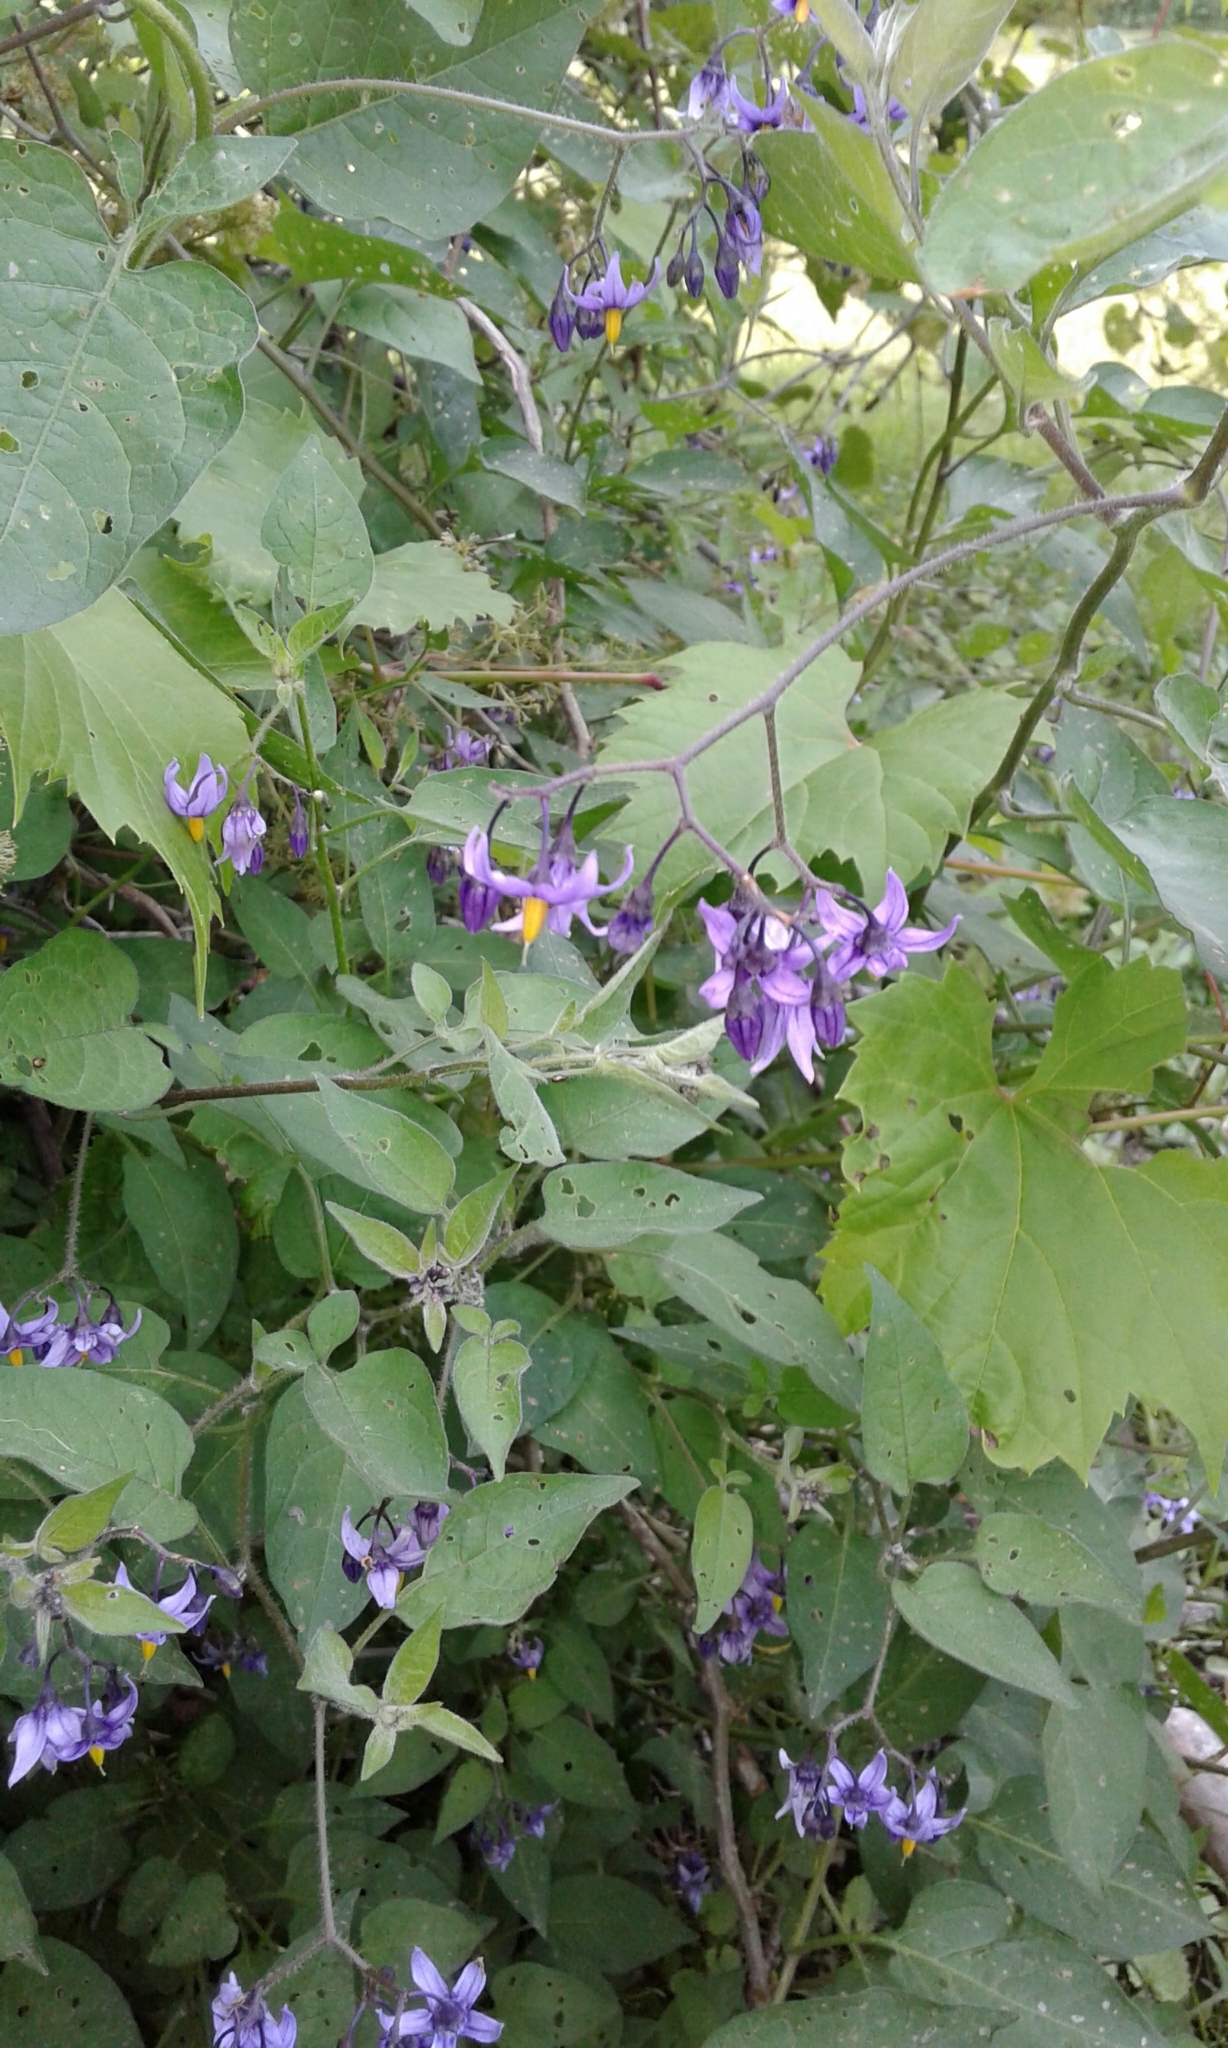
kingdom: Plantae
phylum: Tracheophyta
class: Magnoliopsida
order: Solanales
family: Solanaceae
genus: Solanum
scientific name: Solanum dulcamara
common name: Climbing nightshade
